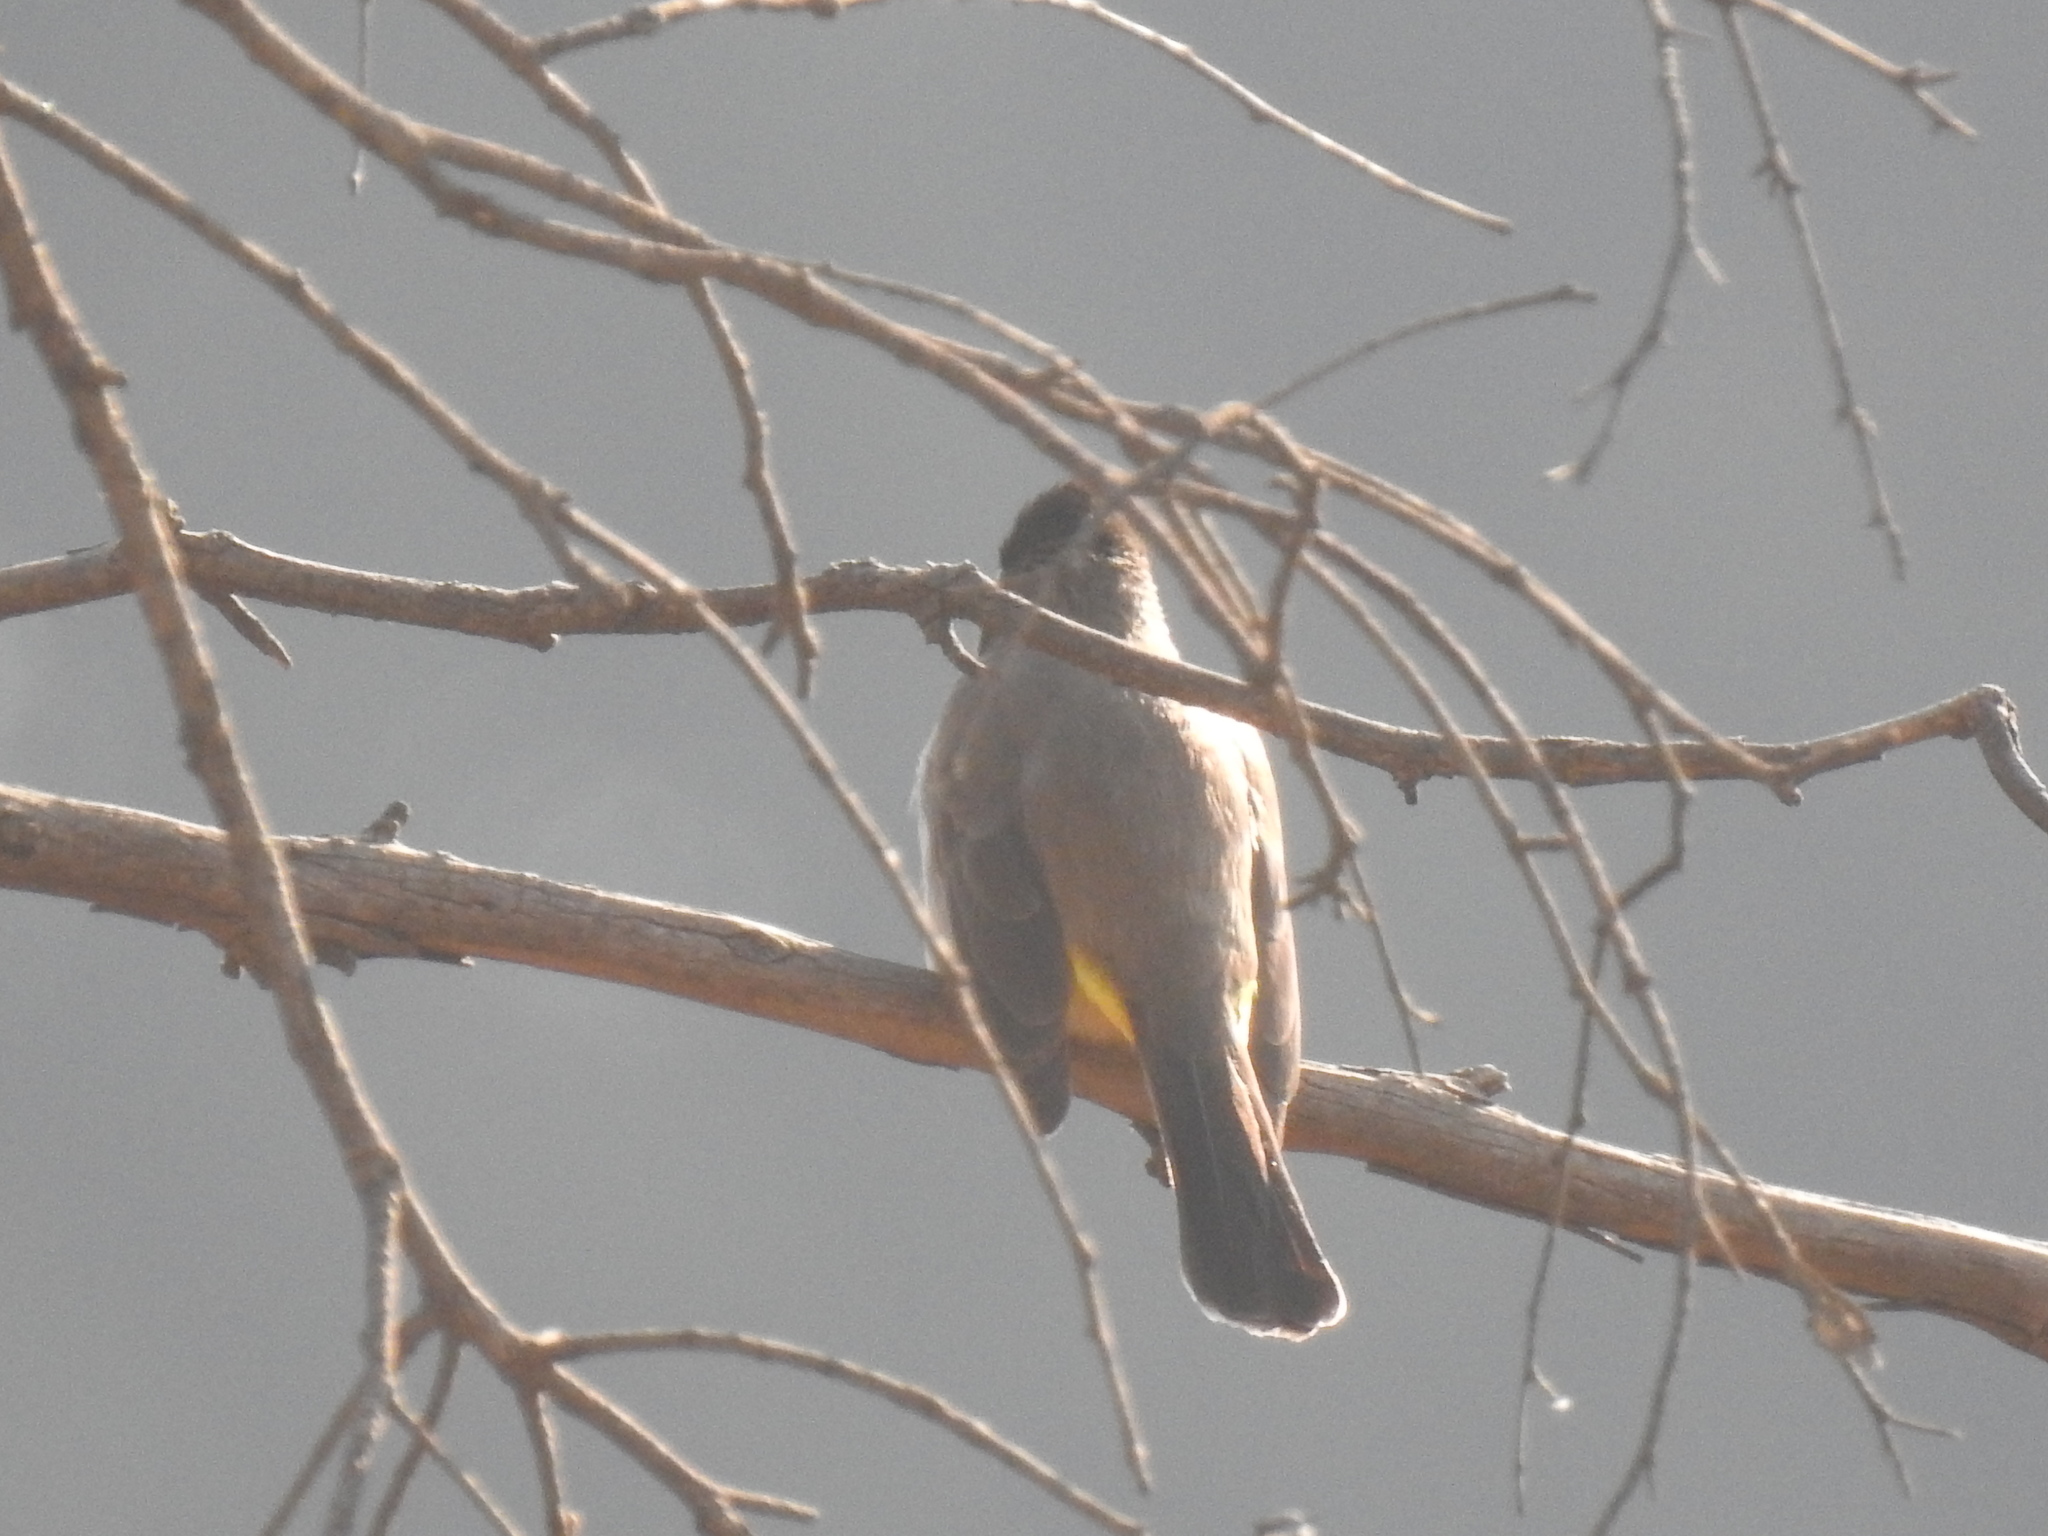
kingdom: Animalia
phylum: Chordata
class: Aves
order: Passeriformes
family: Pycnonotidae
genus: Pycnonotus
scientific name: Pycnonotus barbatus
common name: Common bulbul
